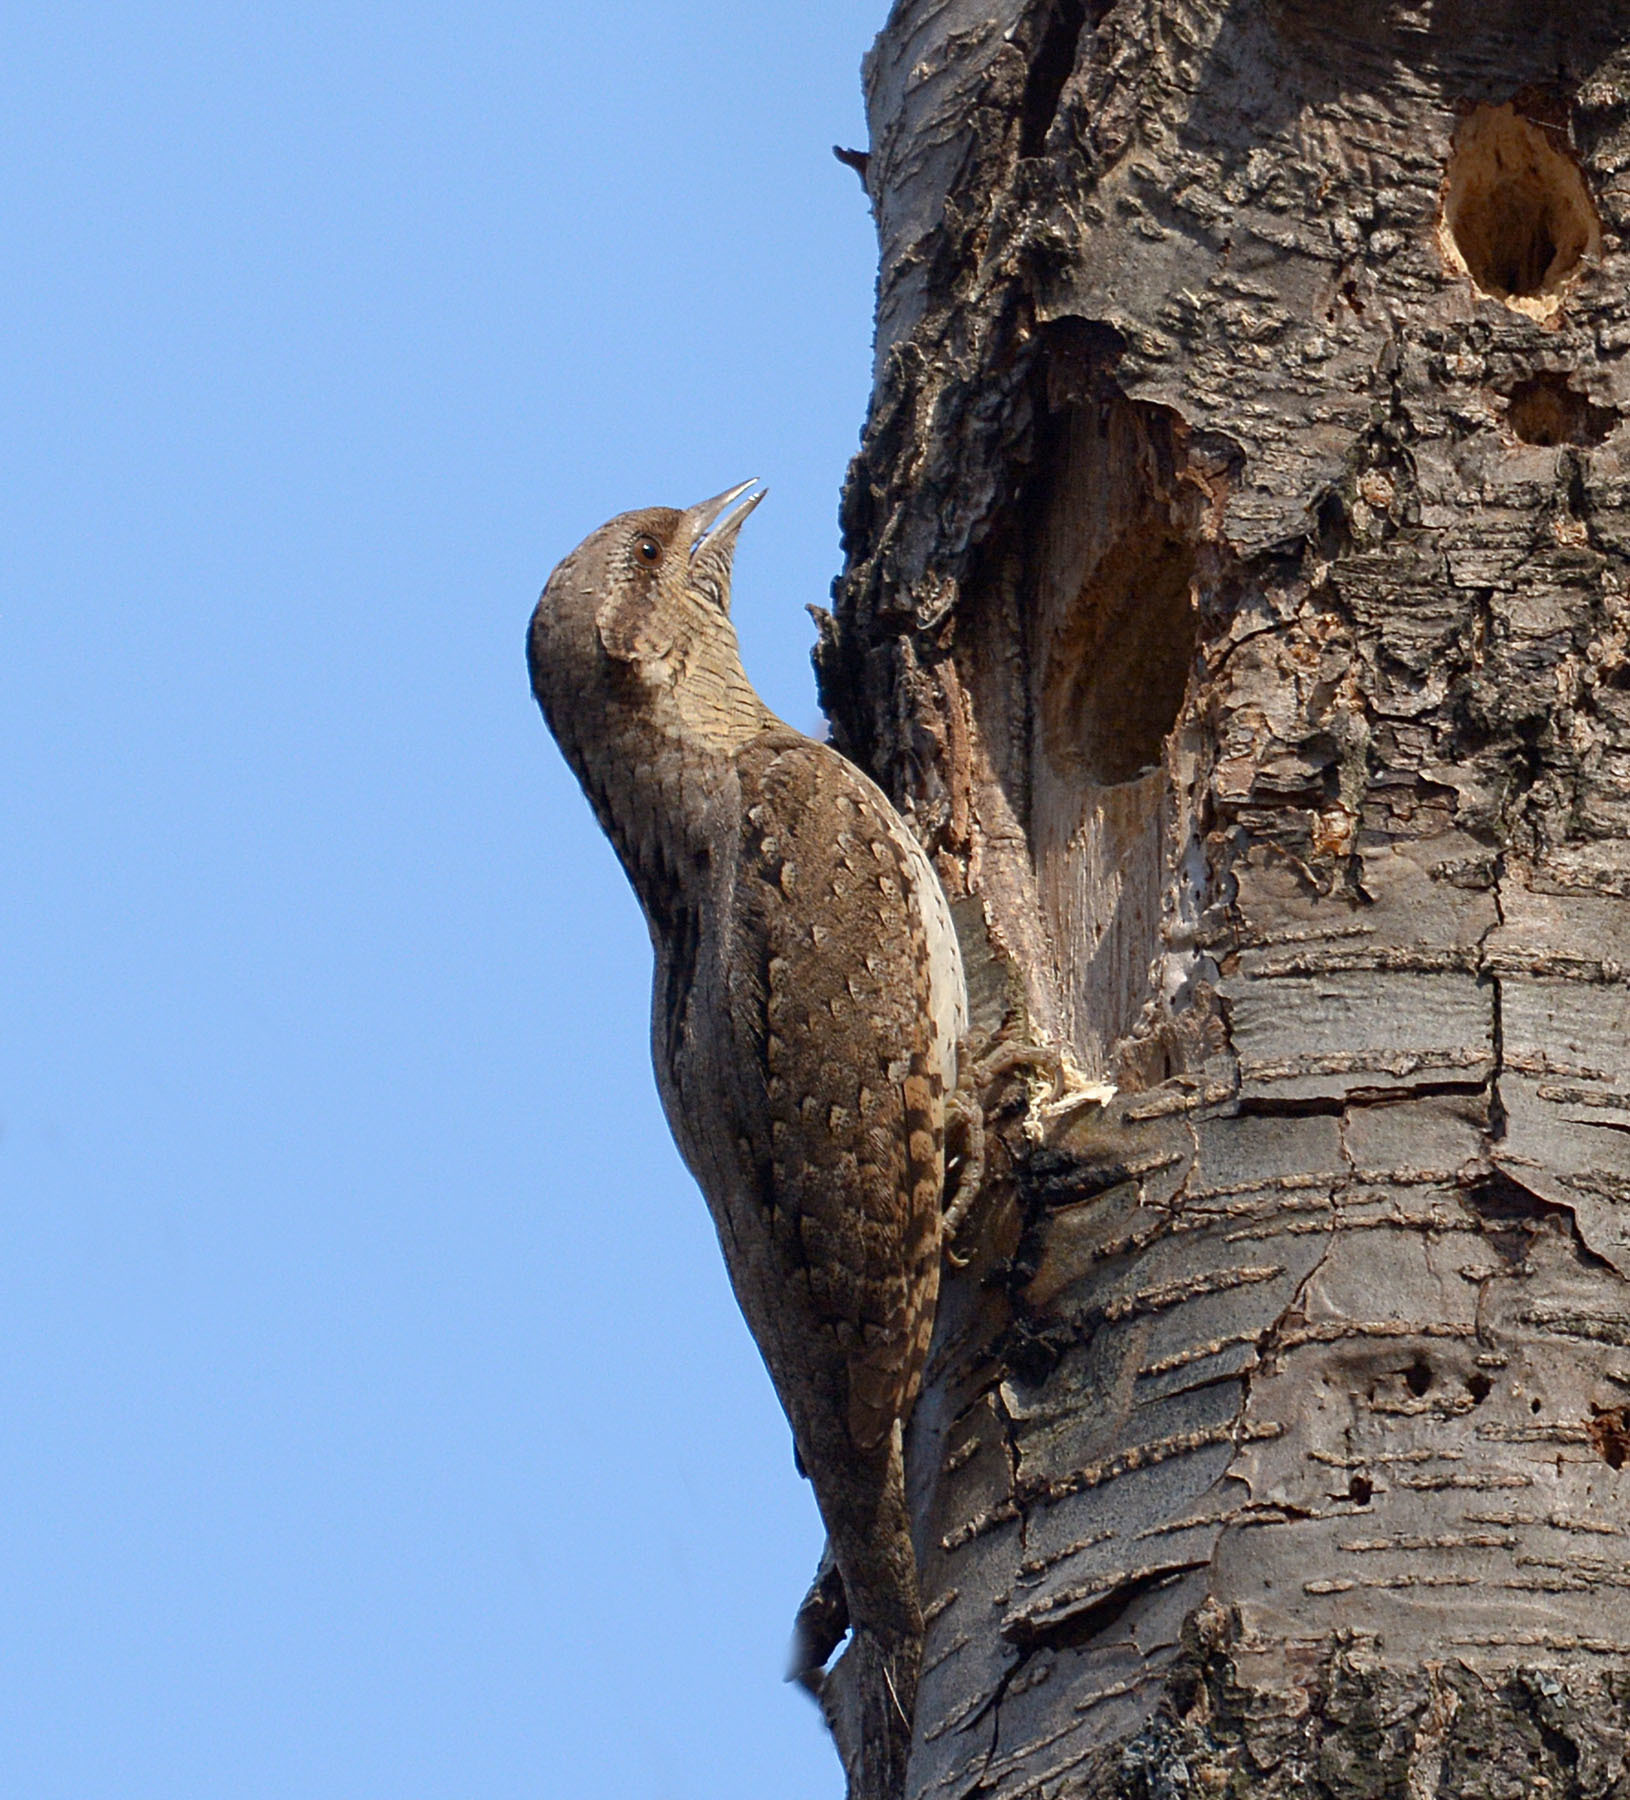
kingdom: Animalia
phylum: Chordata
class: Aves
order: Piciformes
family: Picidae
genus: Jynx
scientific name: Jynx torquilla
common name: Eurasian wryneck
